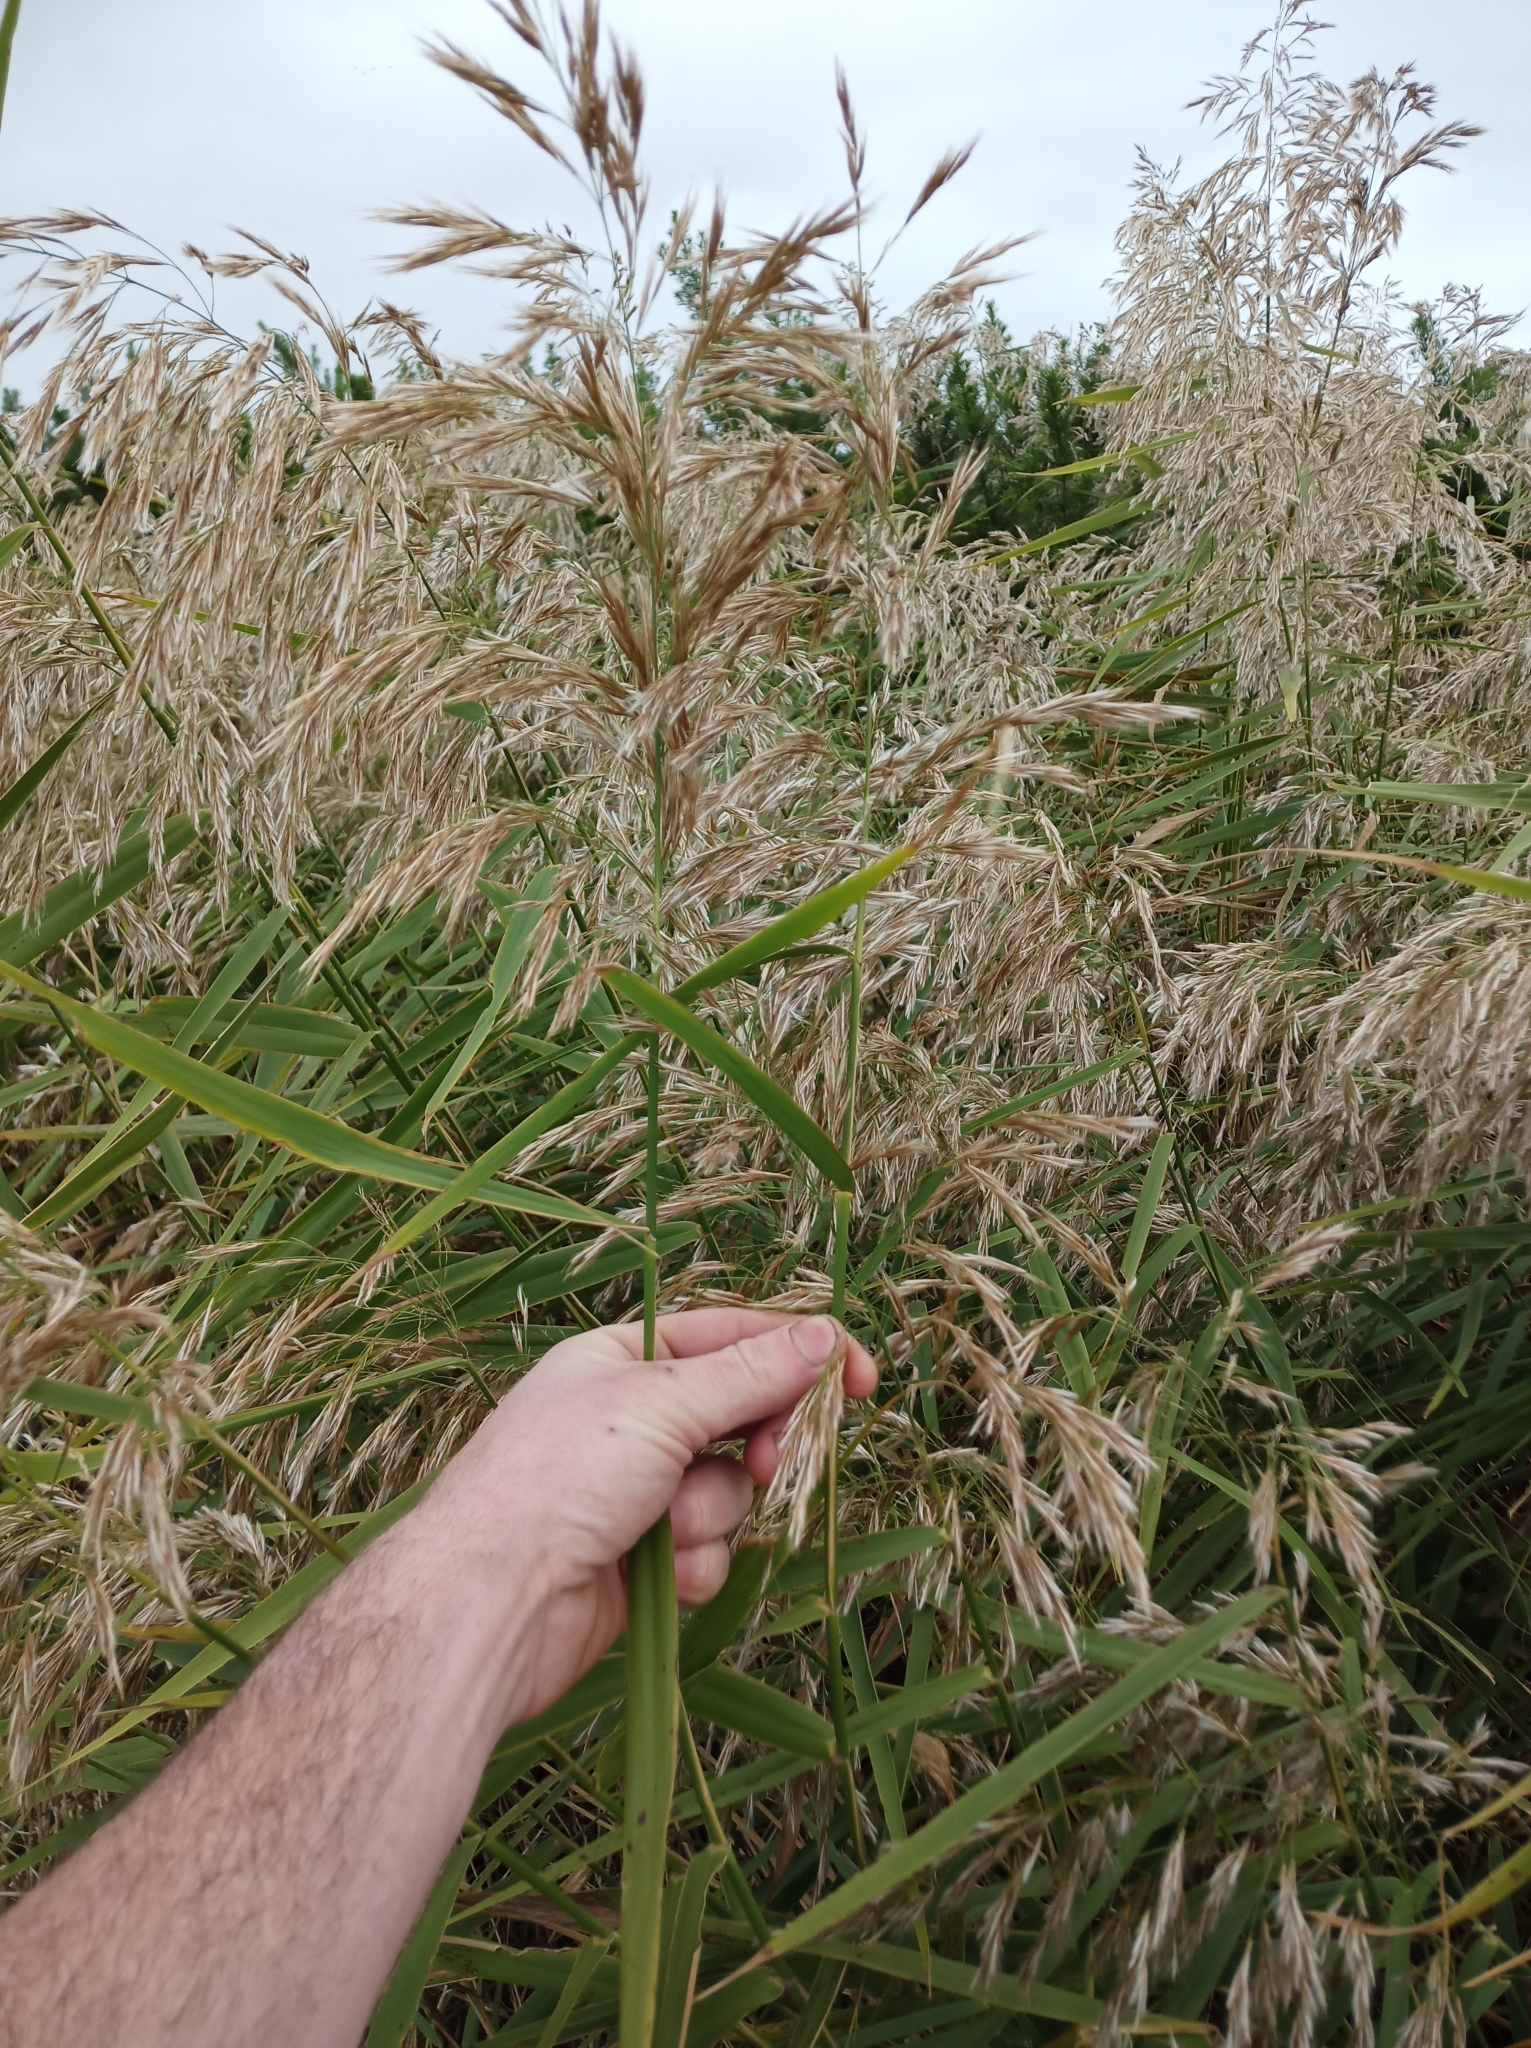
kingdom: Plantae
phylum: Tracheophyta
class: Liliopsida
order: Poales
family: Poaceae
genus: Phragmites
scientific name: Phragmites australis
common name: Common reed
